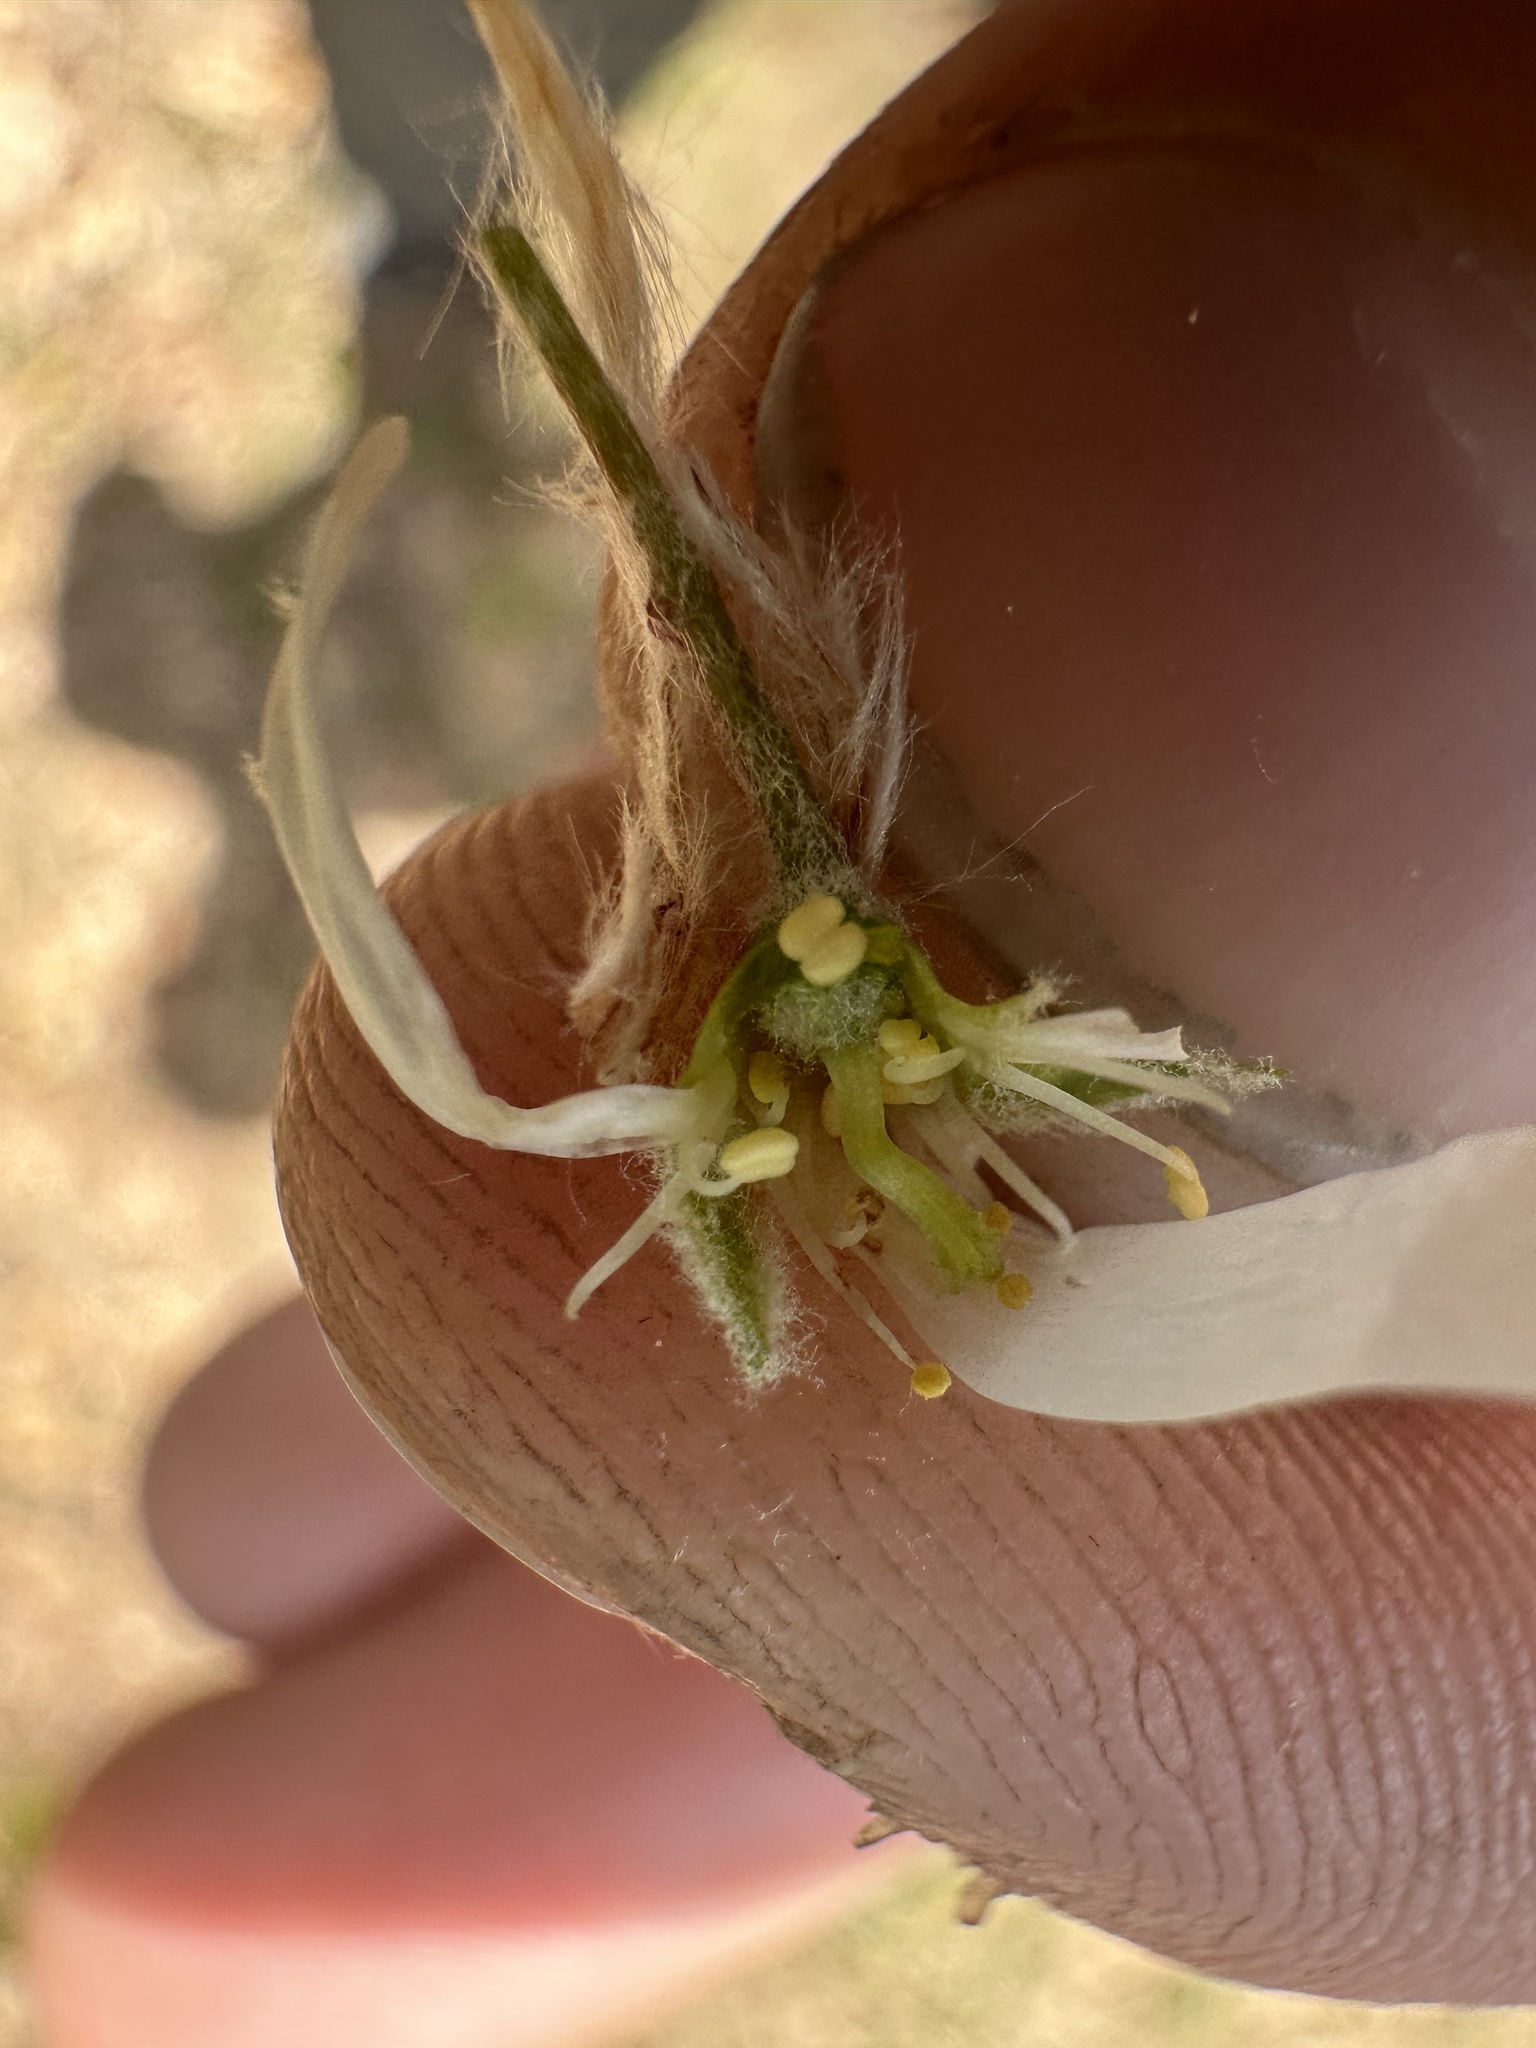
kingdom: Plantae
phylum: Tracheophyta
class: Magnoliopsida
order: Rosales
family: Rosaceae
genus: Amelanchier
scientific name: Amelanchier sanguinea
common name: Huron serviceberry
